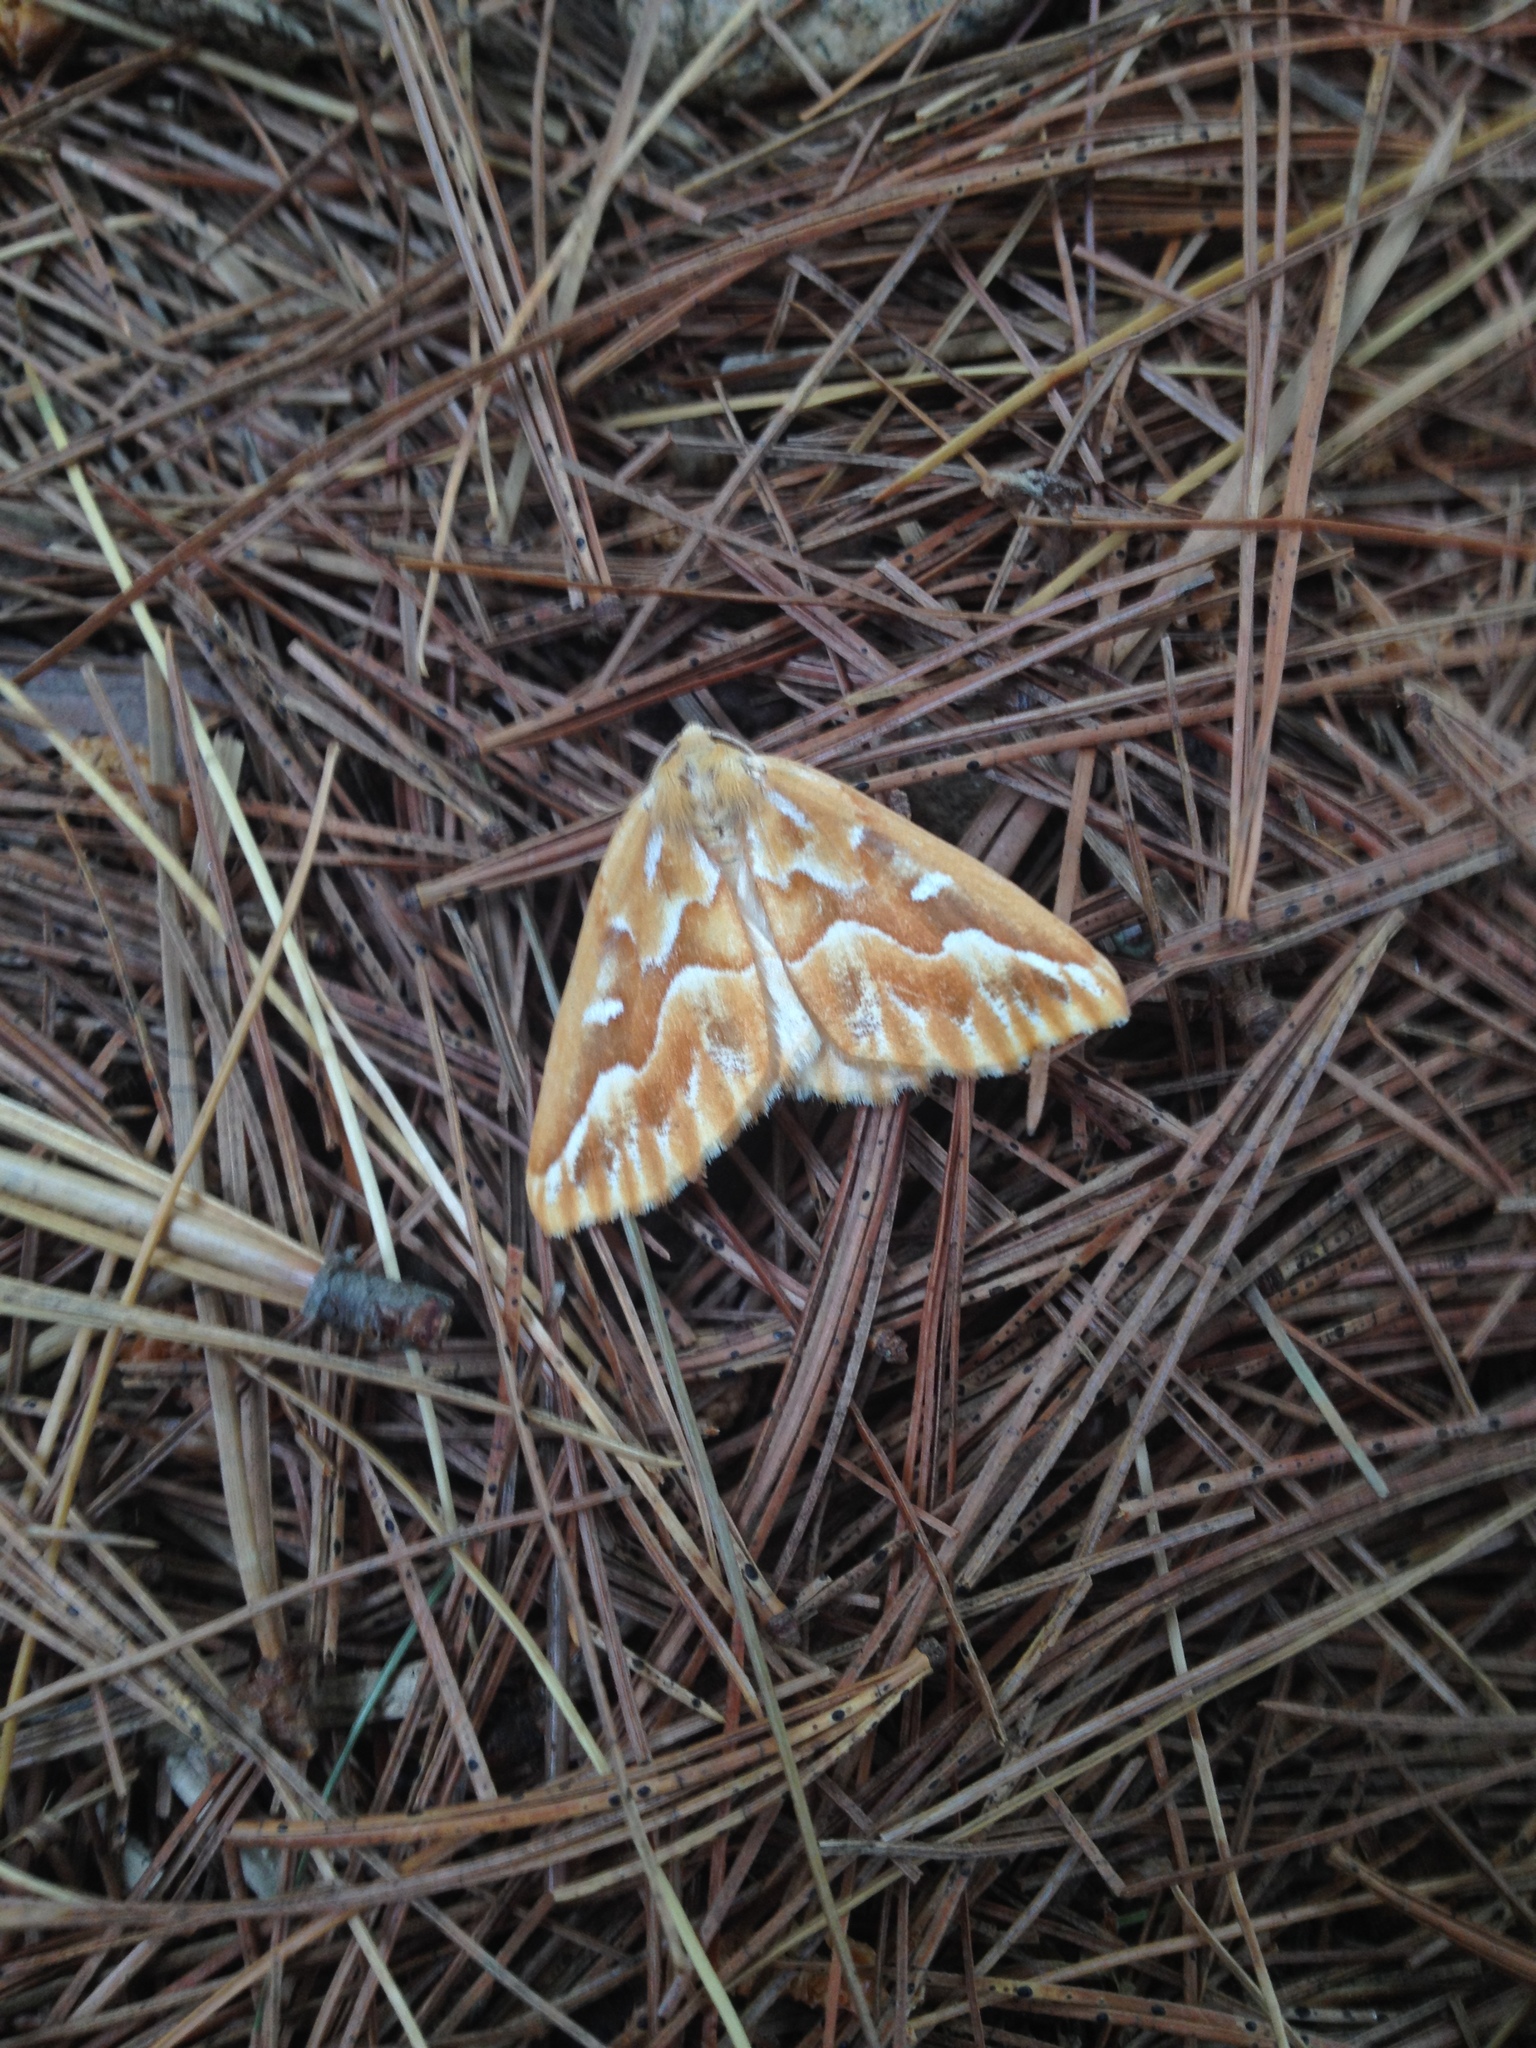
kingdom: Animalia
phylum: Arthropoda
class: Insecta
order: Lepidoptera
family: Geometridae
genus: Caripeta
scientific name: Caripeta piniata
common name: Northern pine looper moth
